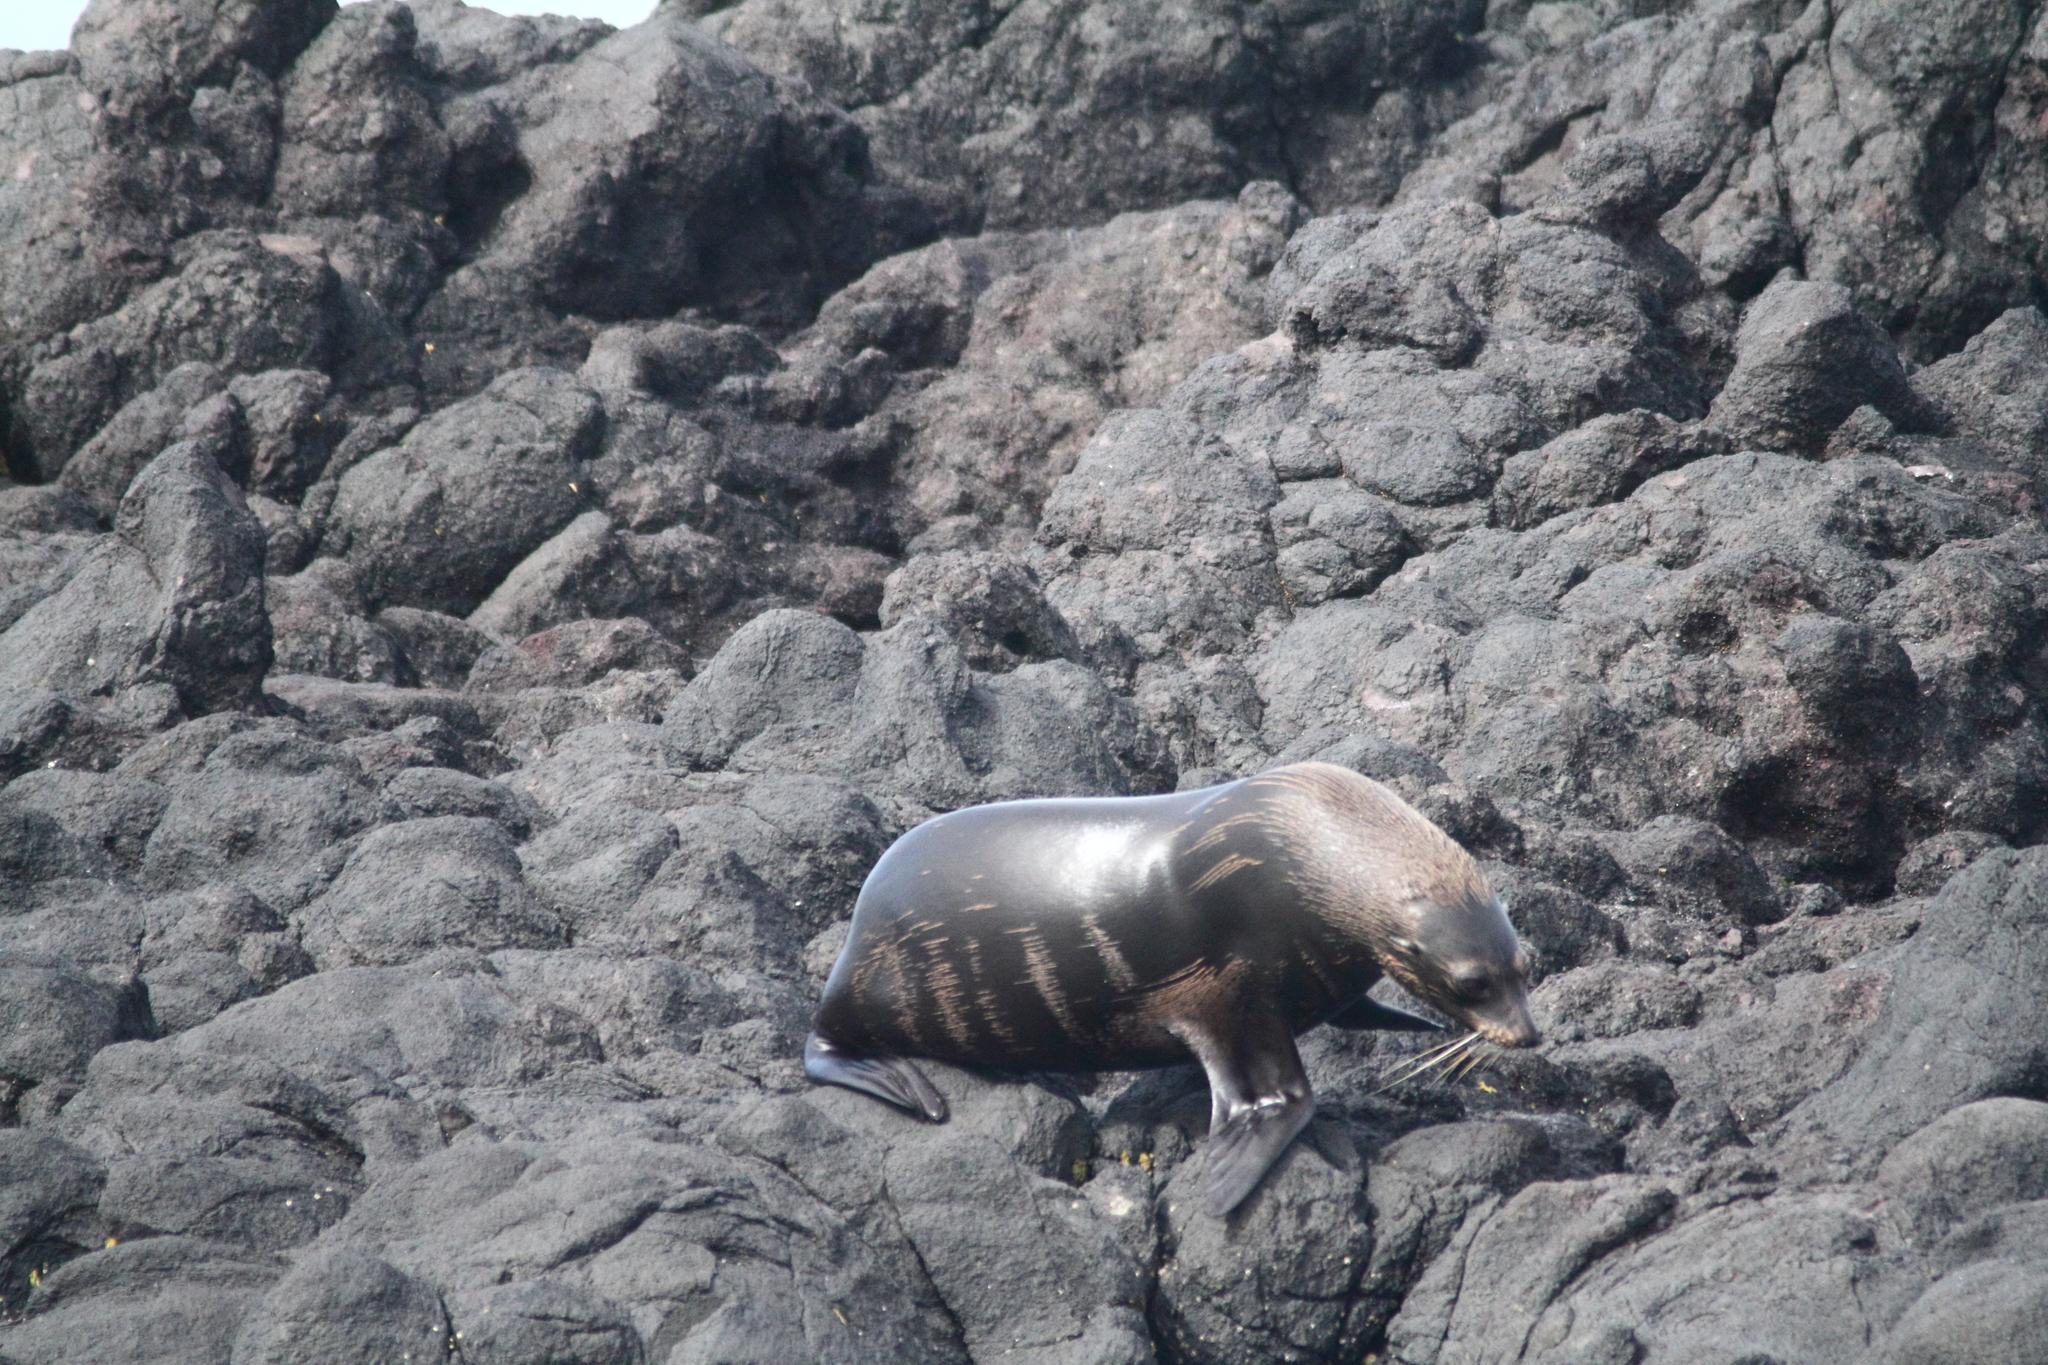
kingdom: Animalia
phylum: Chordata
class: Mammalia
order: Carnivora
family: Otariidae
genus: Arctocephalus
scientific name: Arctocephalus forsteri
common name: New zealand fur seal
